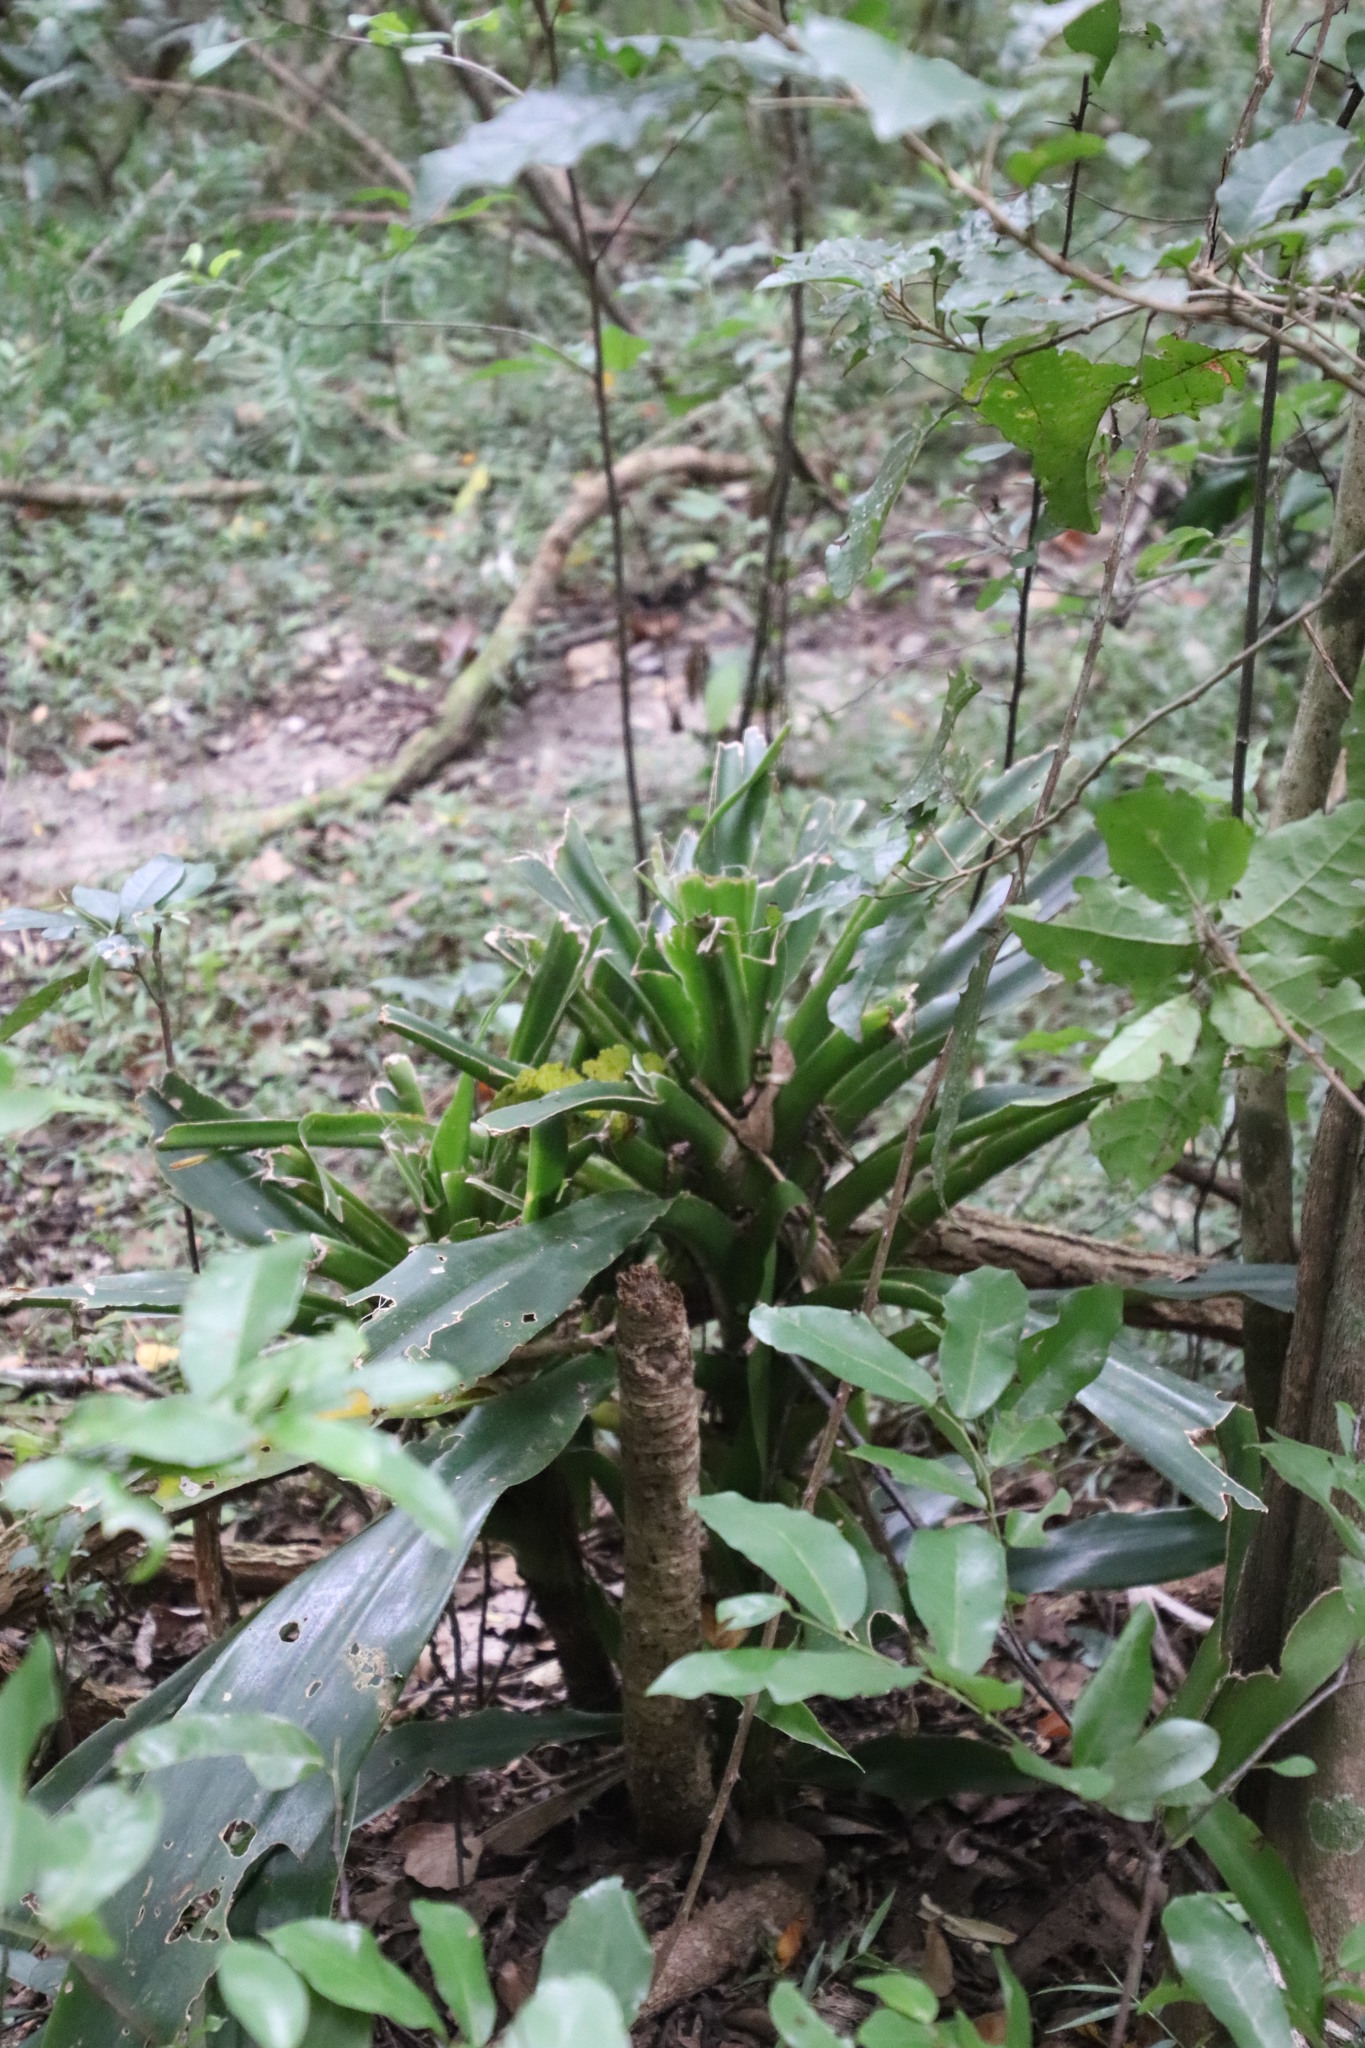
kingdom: Plantae
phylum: Tracheophyta
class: Liliopsida
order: Asparagales
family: Asparagaceae
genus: Dracaena
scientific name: Dracaena aletriformis
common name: Large-leaved dragon tree
